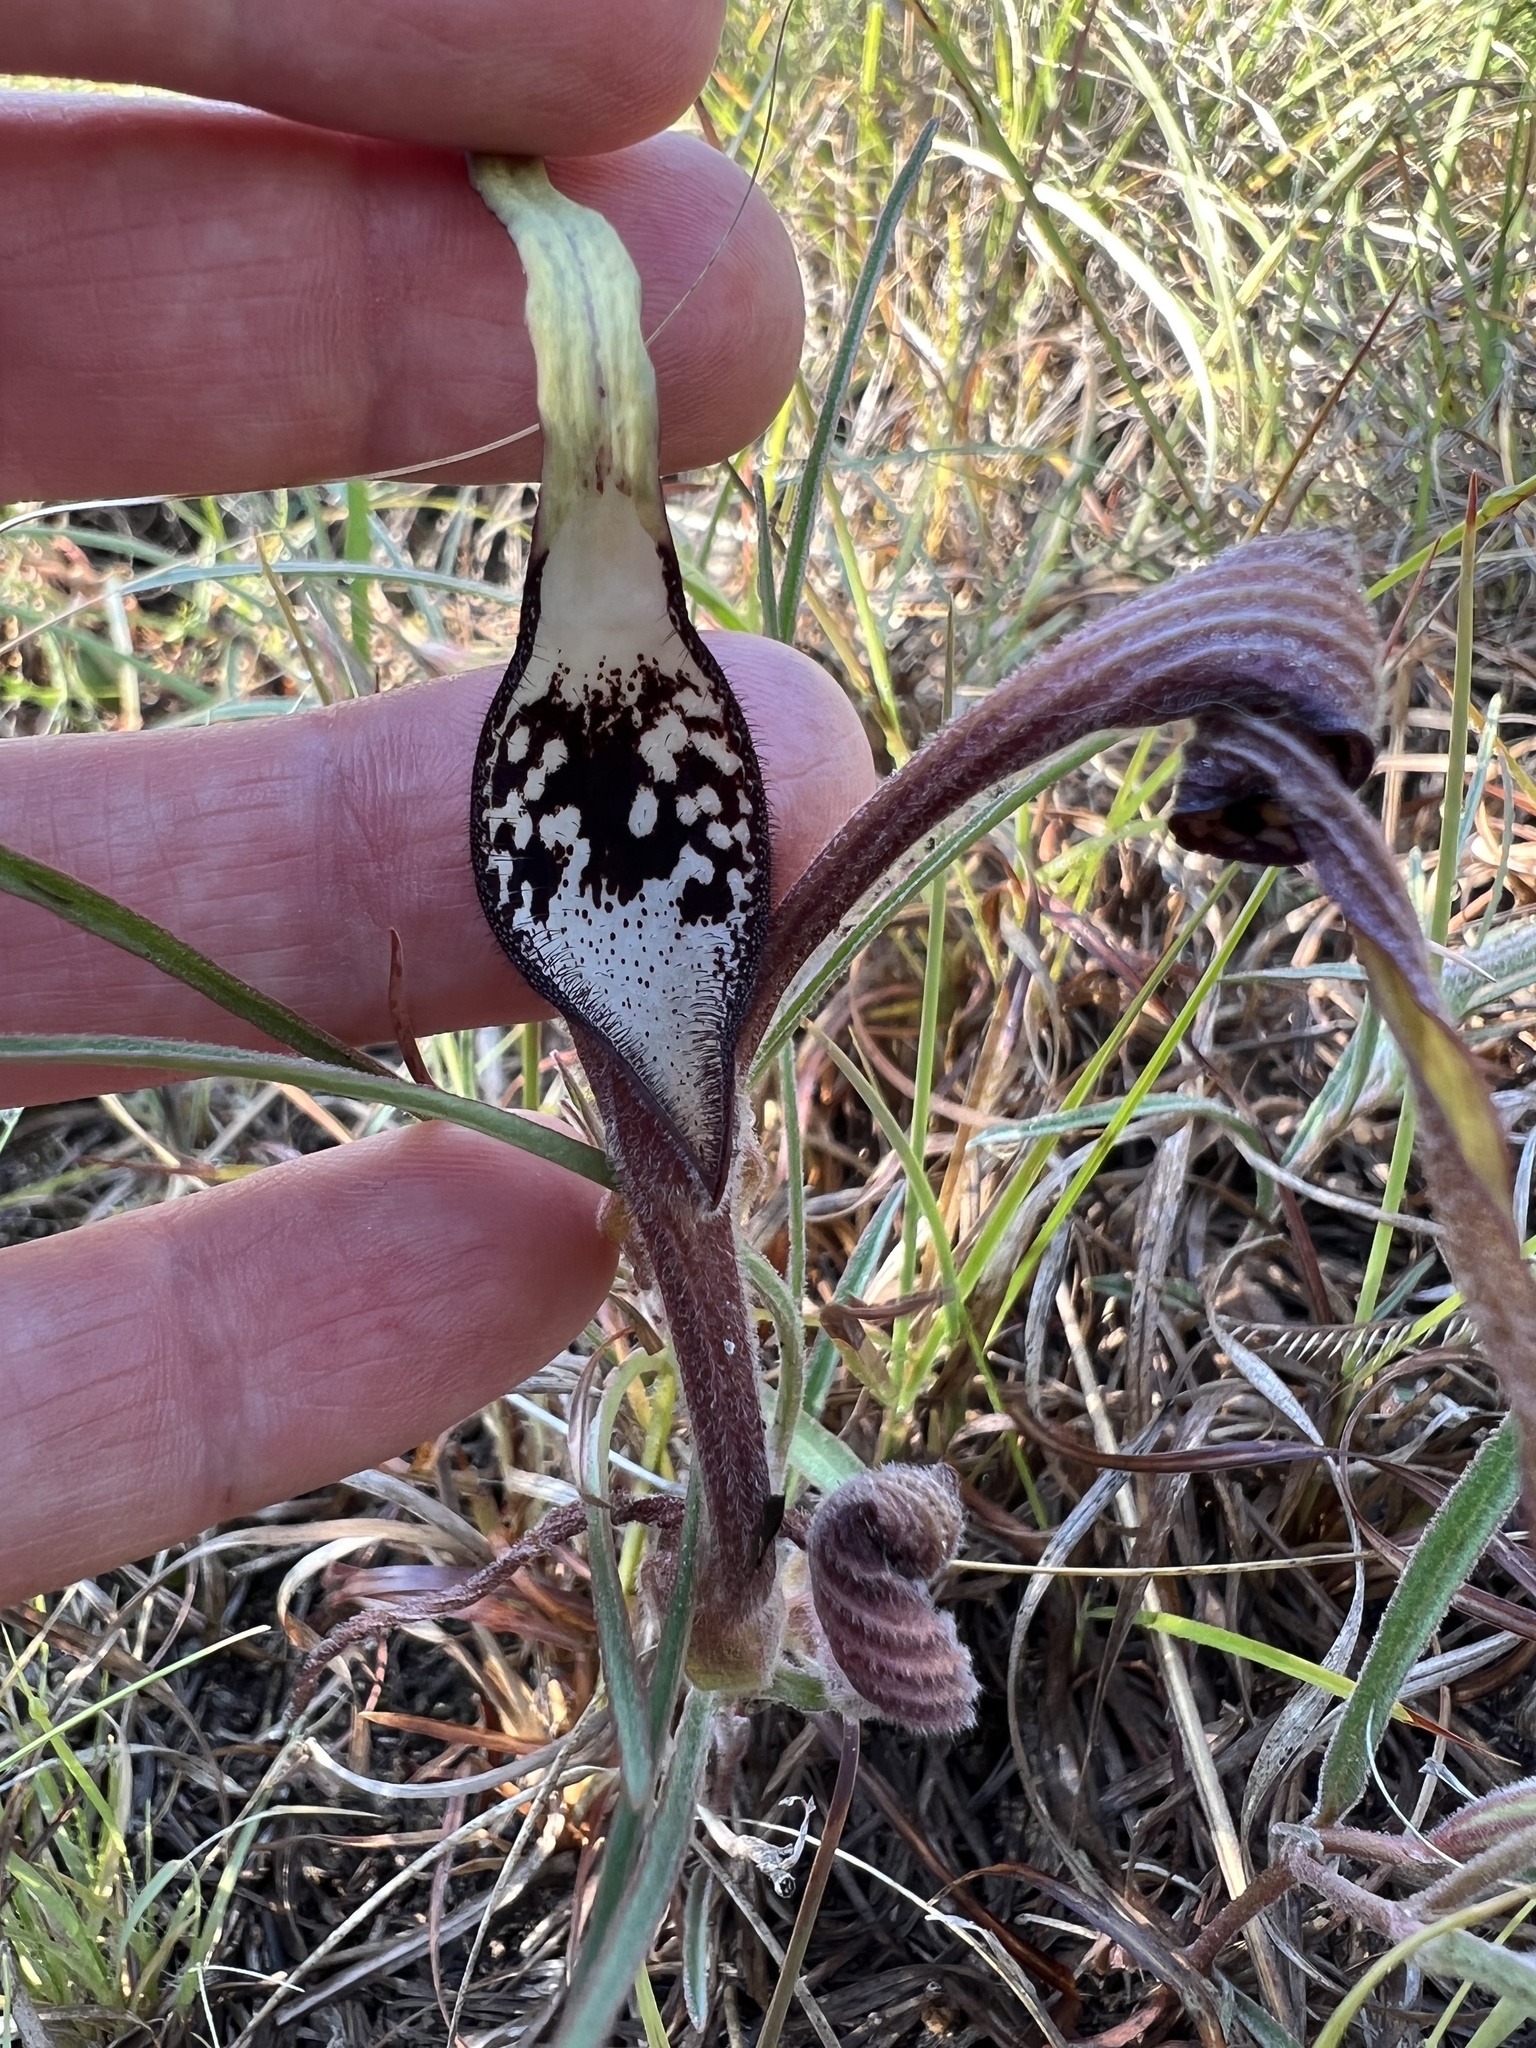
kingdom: Plantae
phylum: Tracheophyta
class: Magnoliopsida
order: Piperales
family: Aristolochiaceae
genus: Aristolochia
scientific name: Aristolochia erecta
